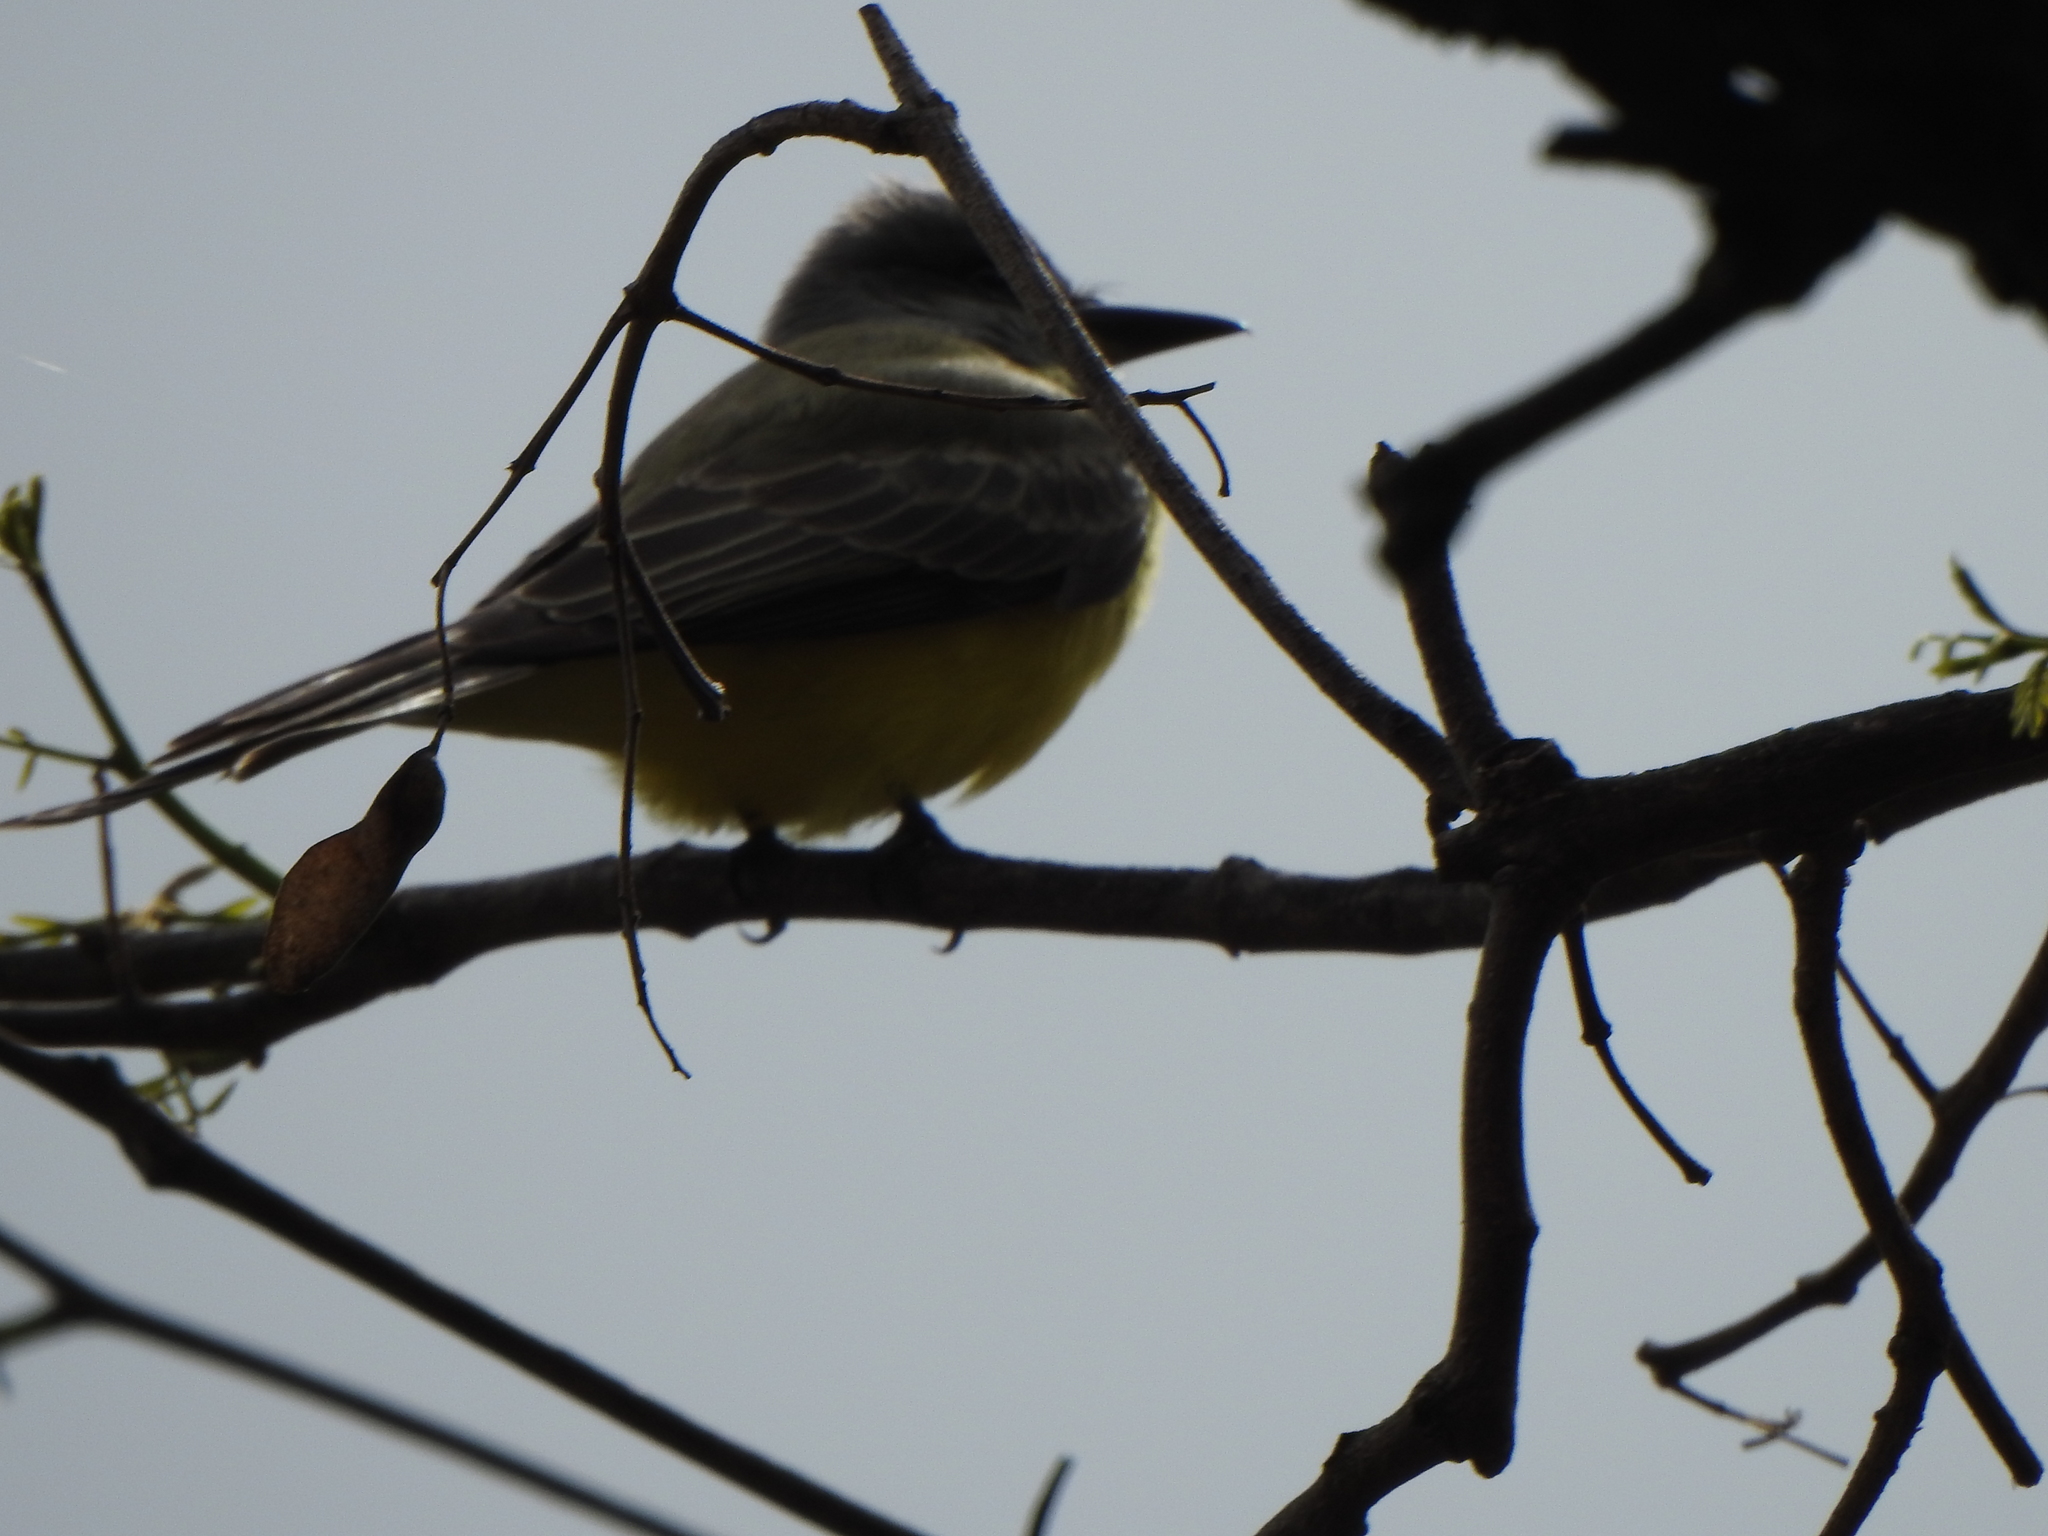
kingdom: Animalia
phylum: Chordata
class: Aves
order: Passeriformes
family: Tyrannidae
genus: Tyrannus
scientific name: Tyrannus melancholicus
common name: Tropical kingbird
